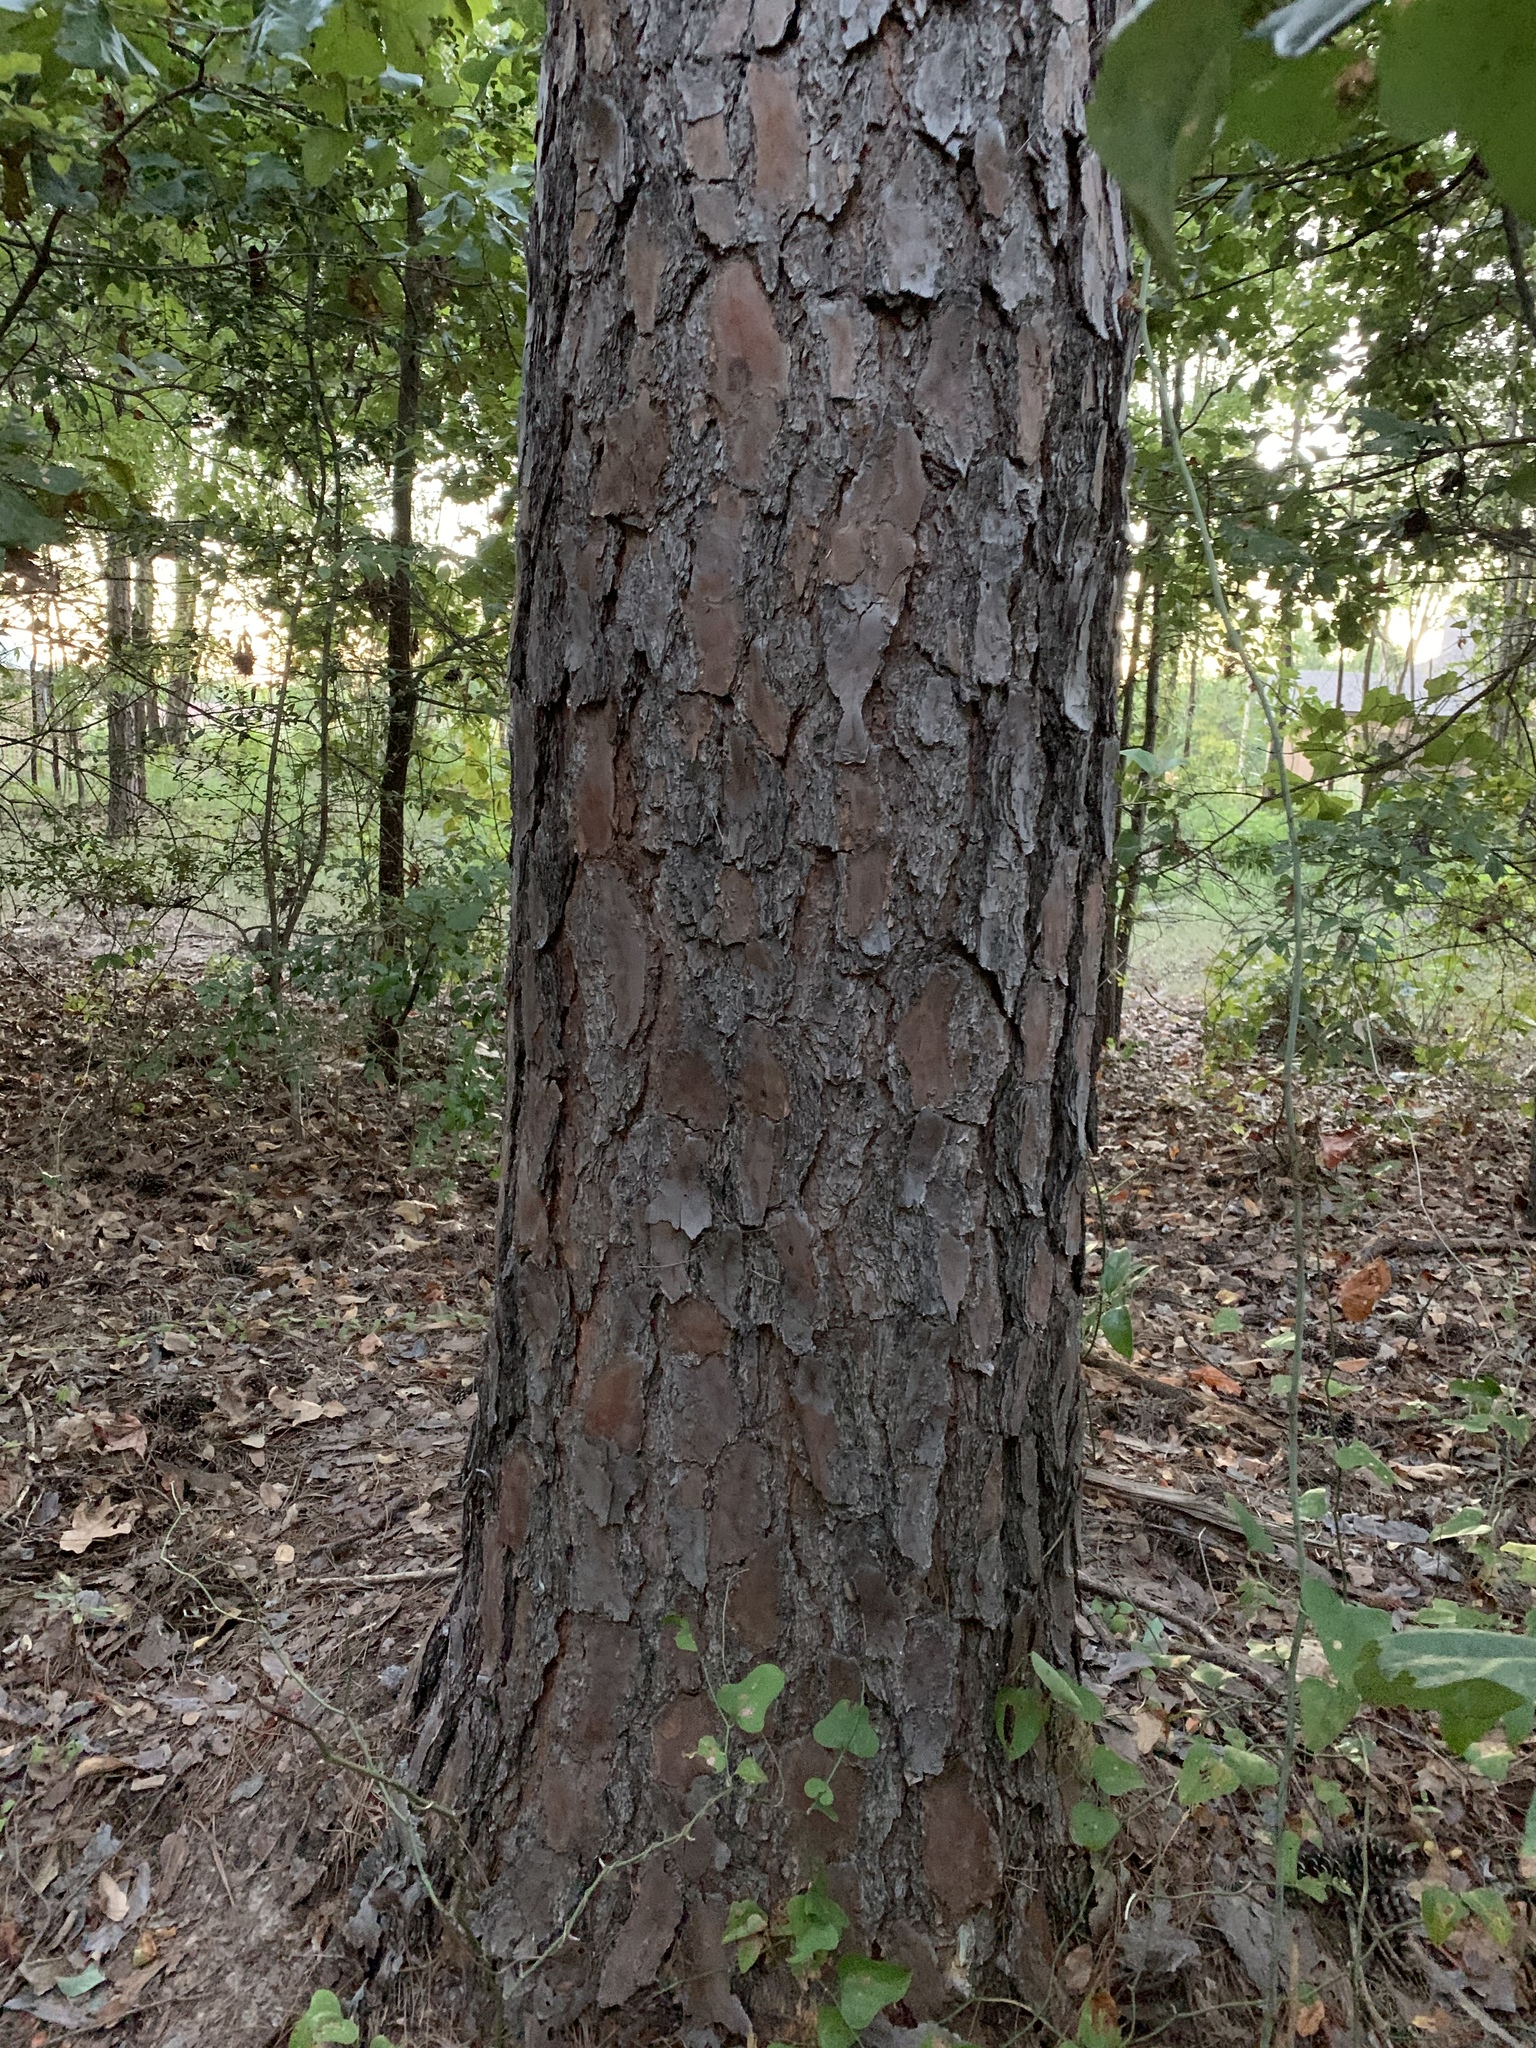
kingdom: Plantae
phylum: Tracheophyta
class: Pinopsida
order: Pinales
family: Pinaceae
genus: Pinus
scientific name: Pinus echinata
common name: Shortleaf pine
